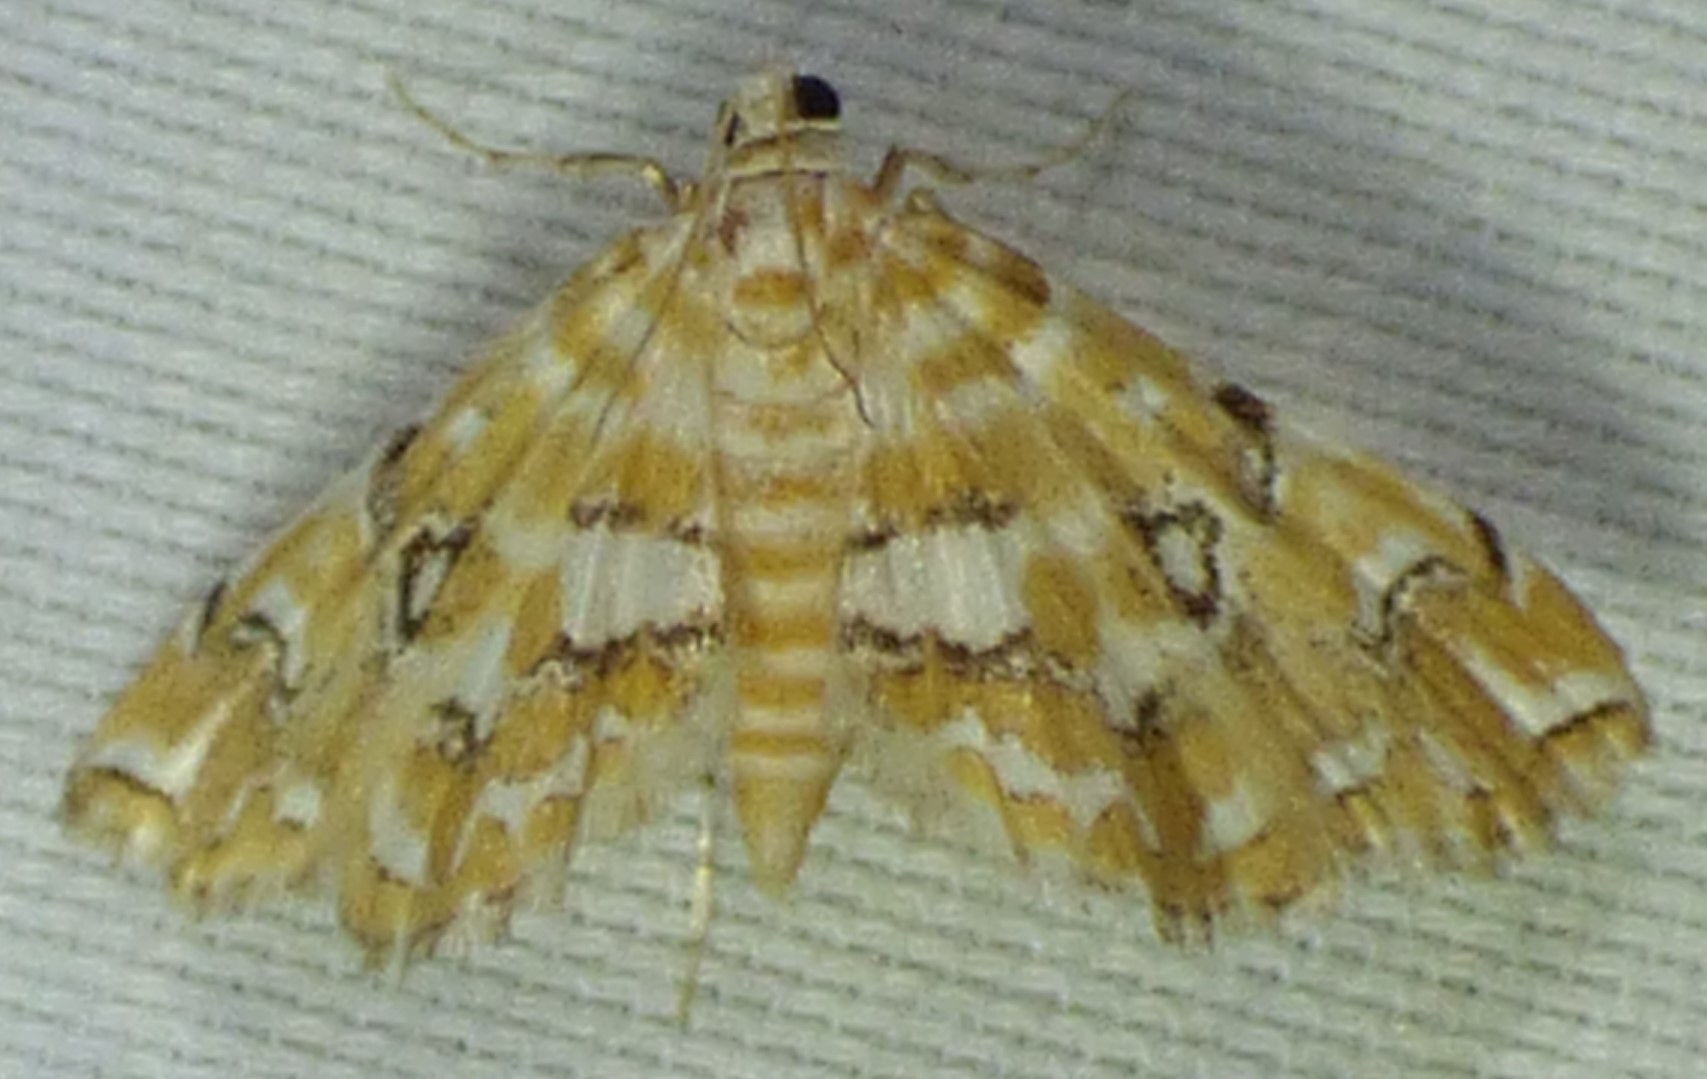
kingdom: Animalia
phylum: Arthropoda
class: Insecta
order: Lepidoptera
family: Crambidae
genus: Elophila
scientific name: Elophila icciusalis
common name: Pondside pyralid moth
